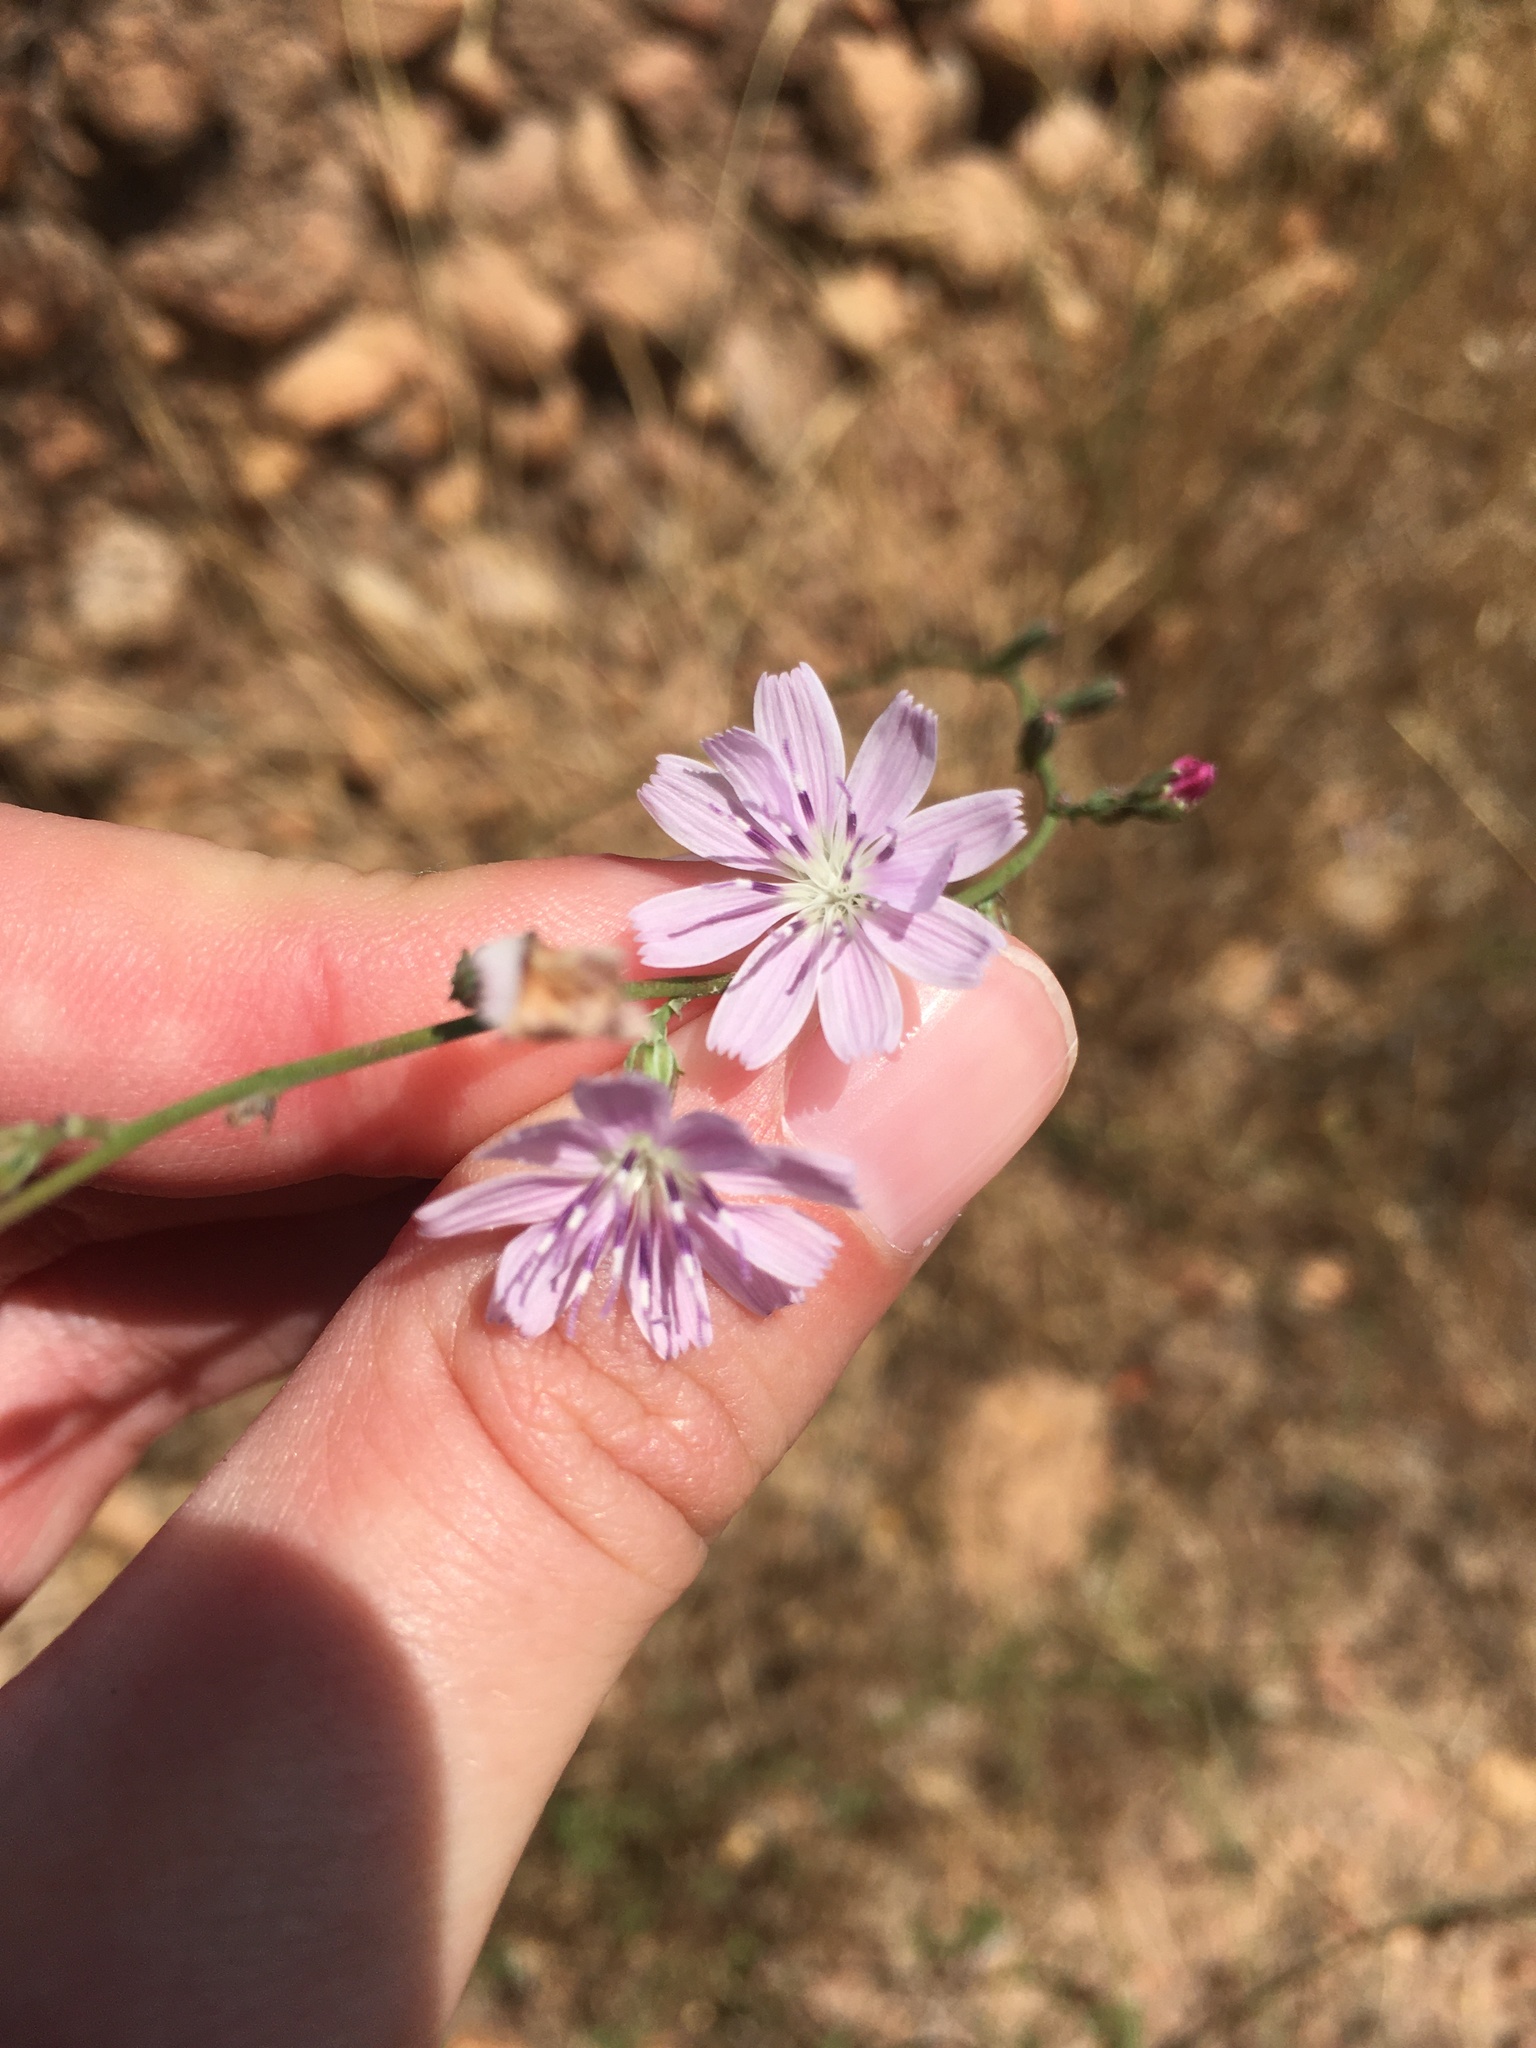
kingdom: Plantae
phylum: Tracheophyta
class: Magnoliopsida
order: Asterales
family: Asteraceae
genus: Stephanomeria
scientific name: Stephanomeria diegensis
